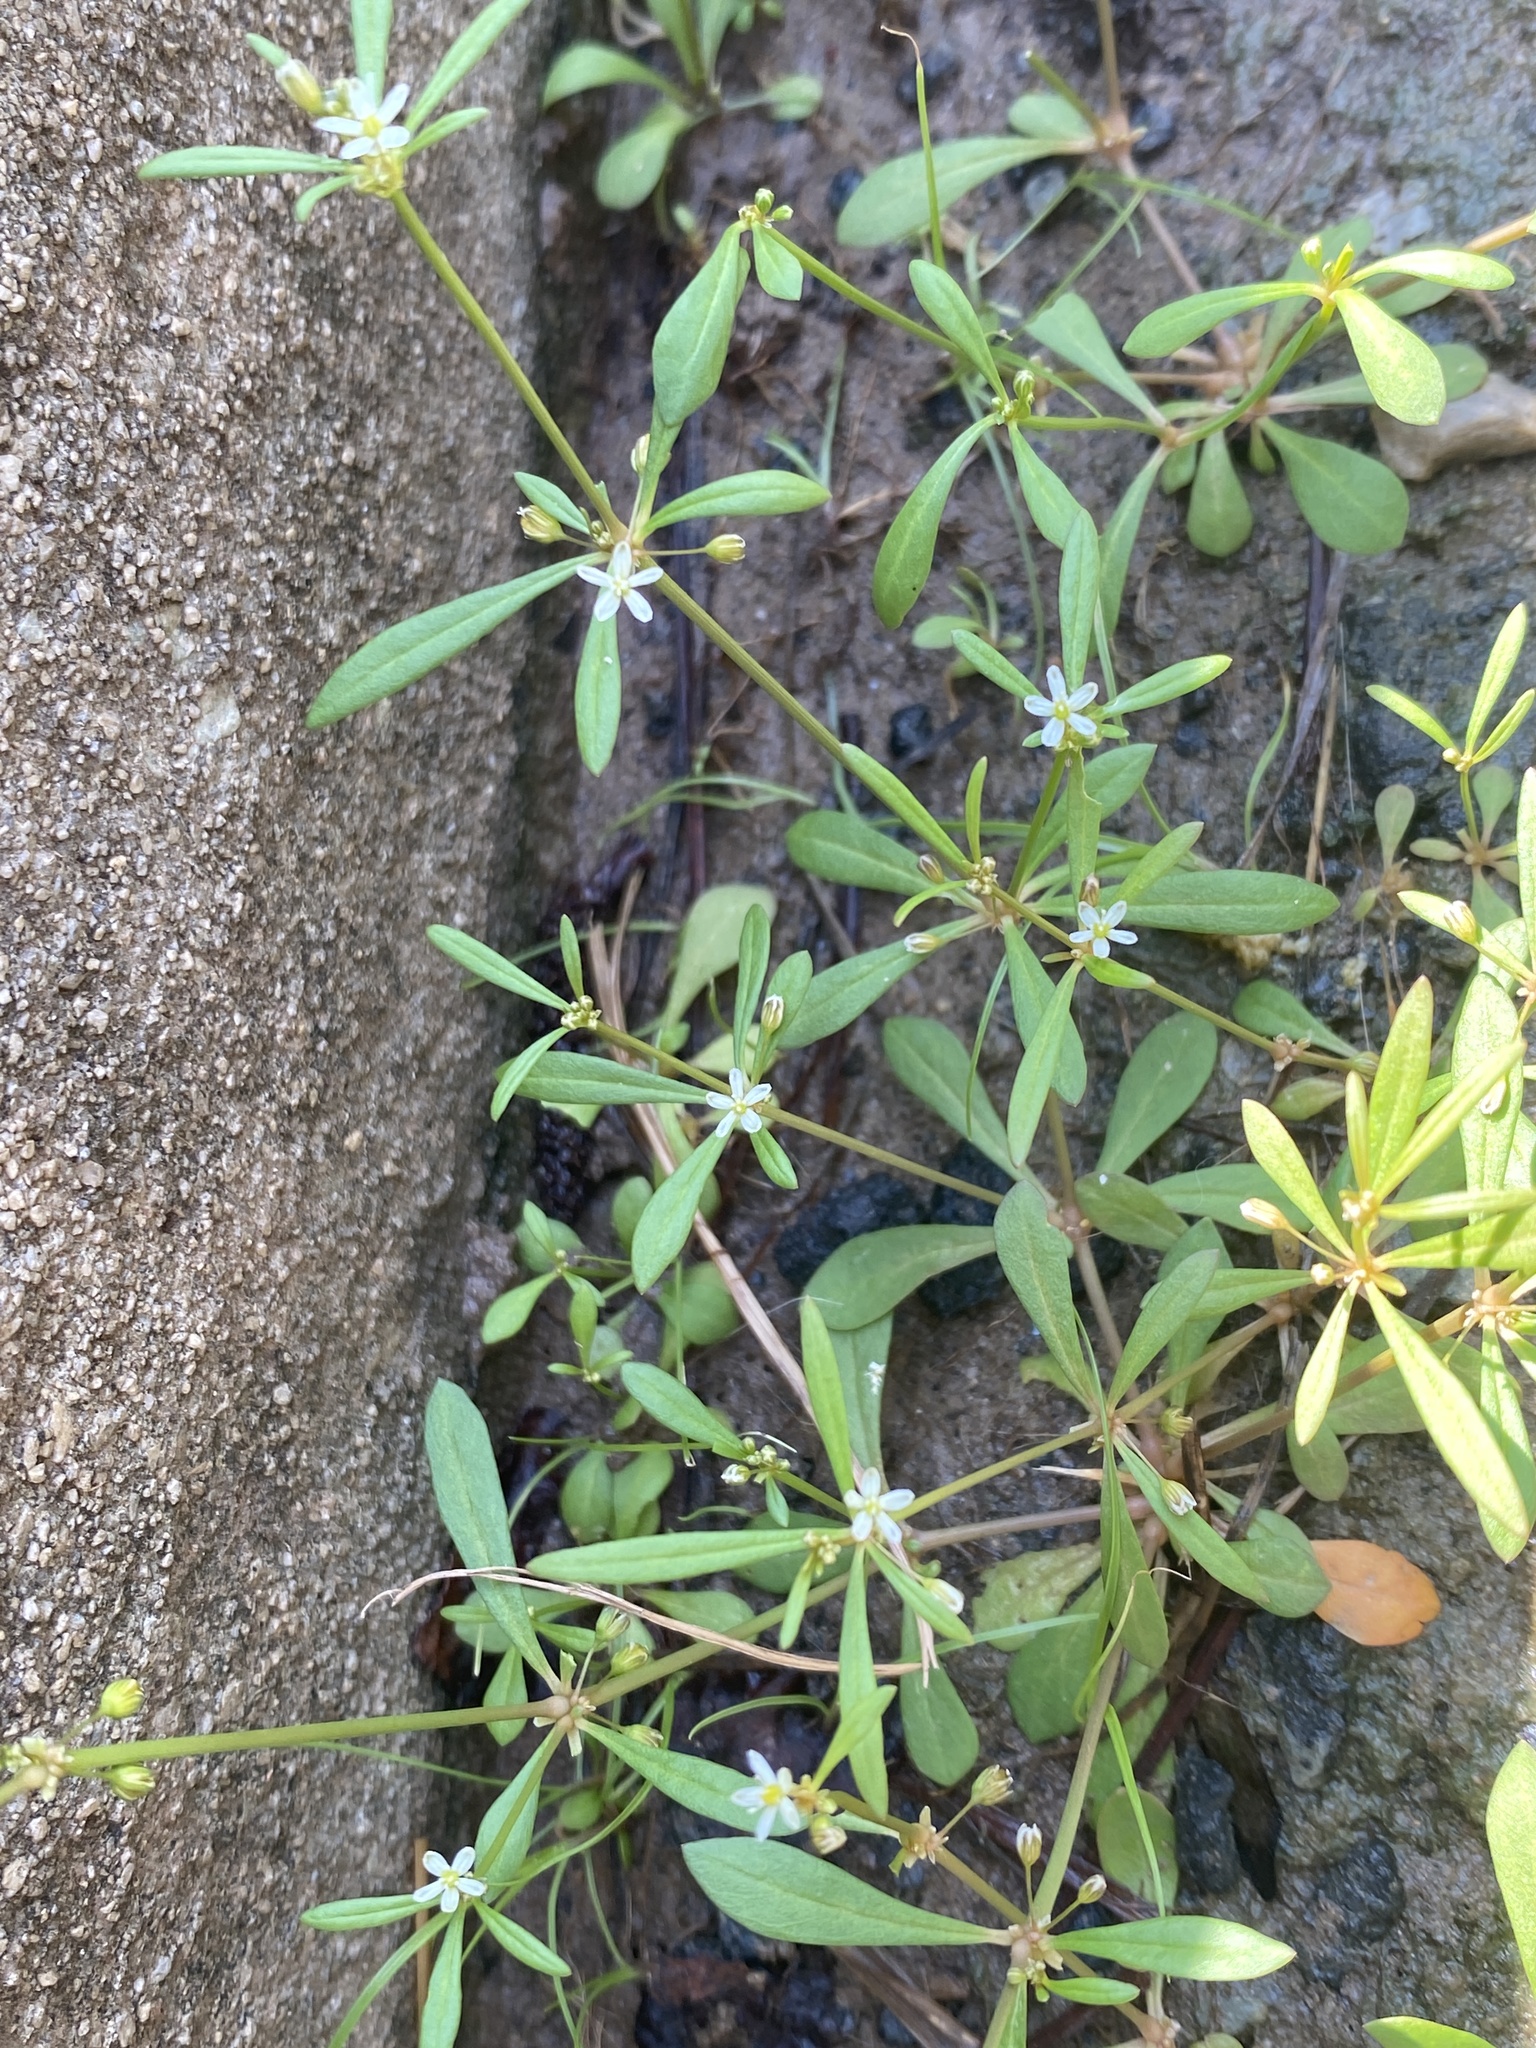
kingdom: Plantae
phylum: Tracheophyta
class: Magnoliopsida
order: Caryophyllales
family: Molluginaceae
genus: Mollugo
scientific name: Mollugo verticillata
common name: Green carpetweed
